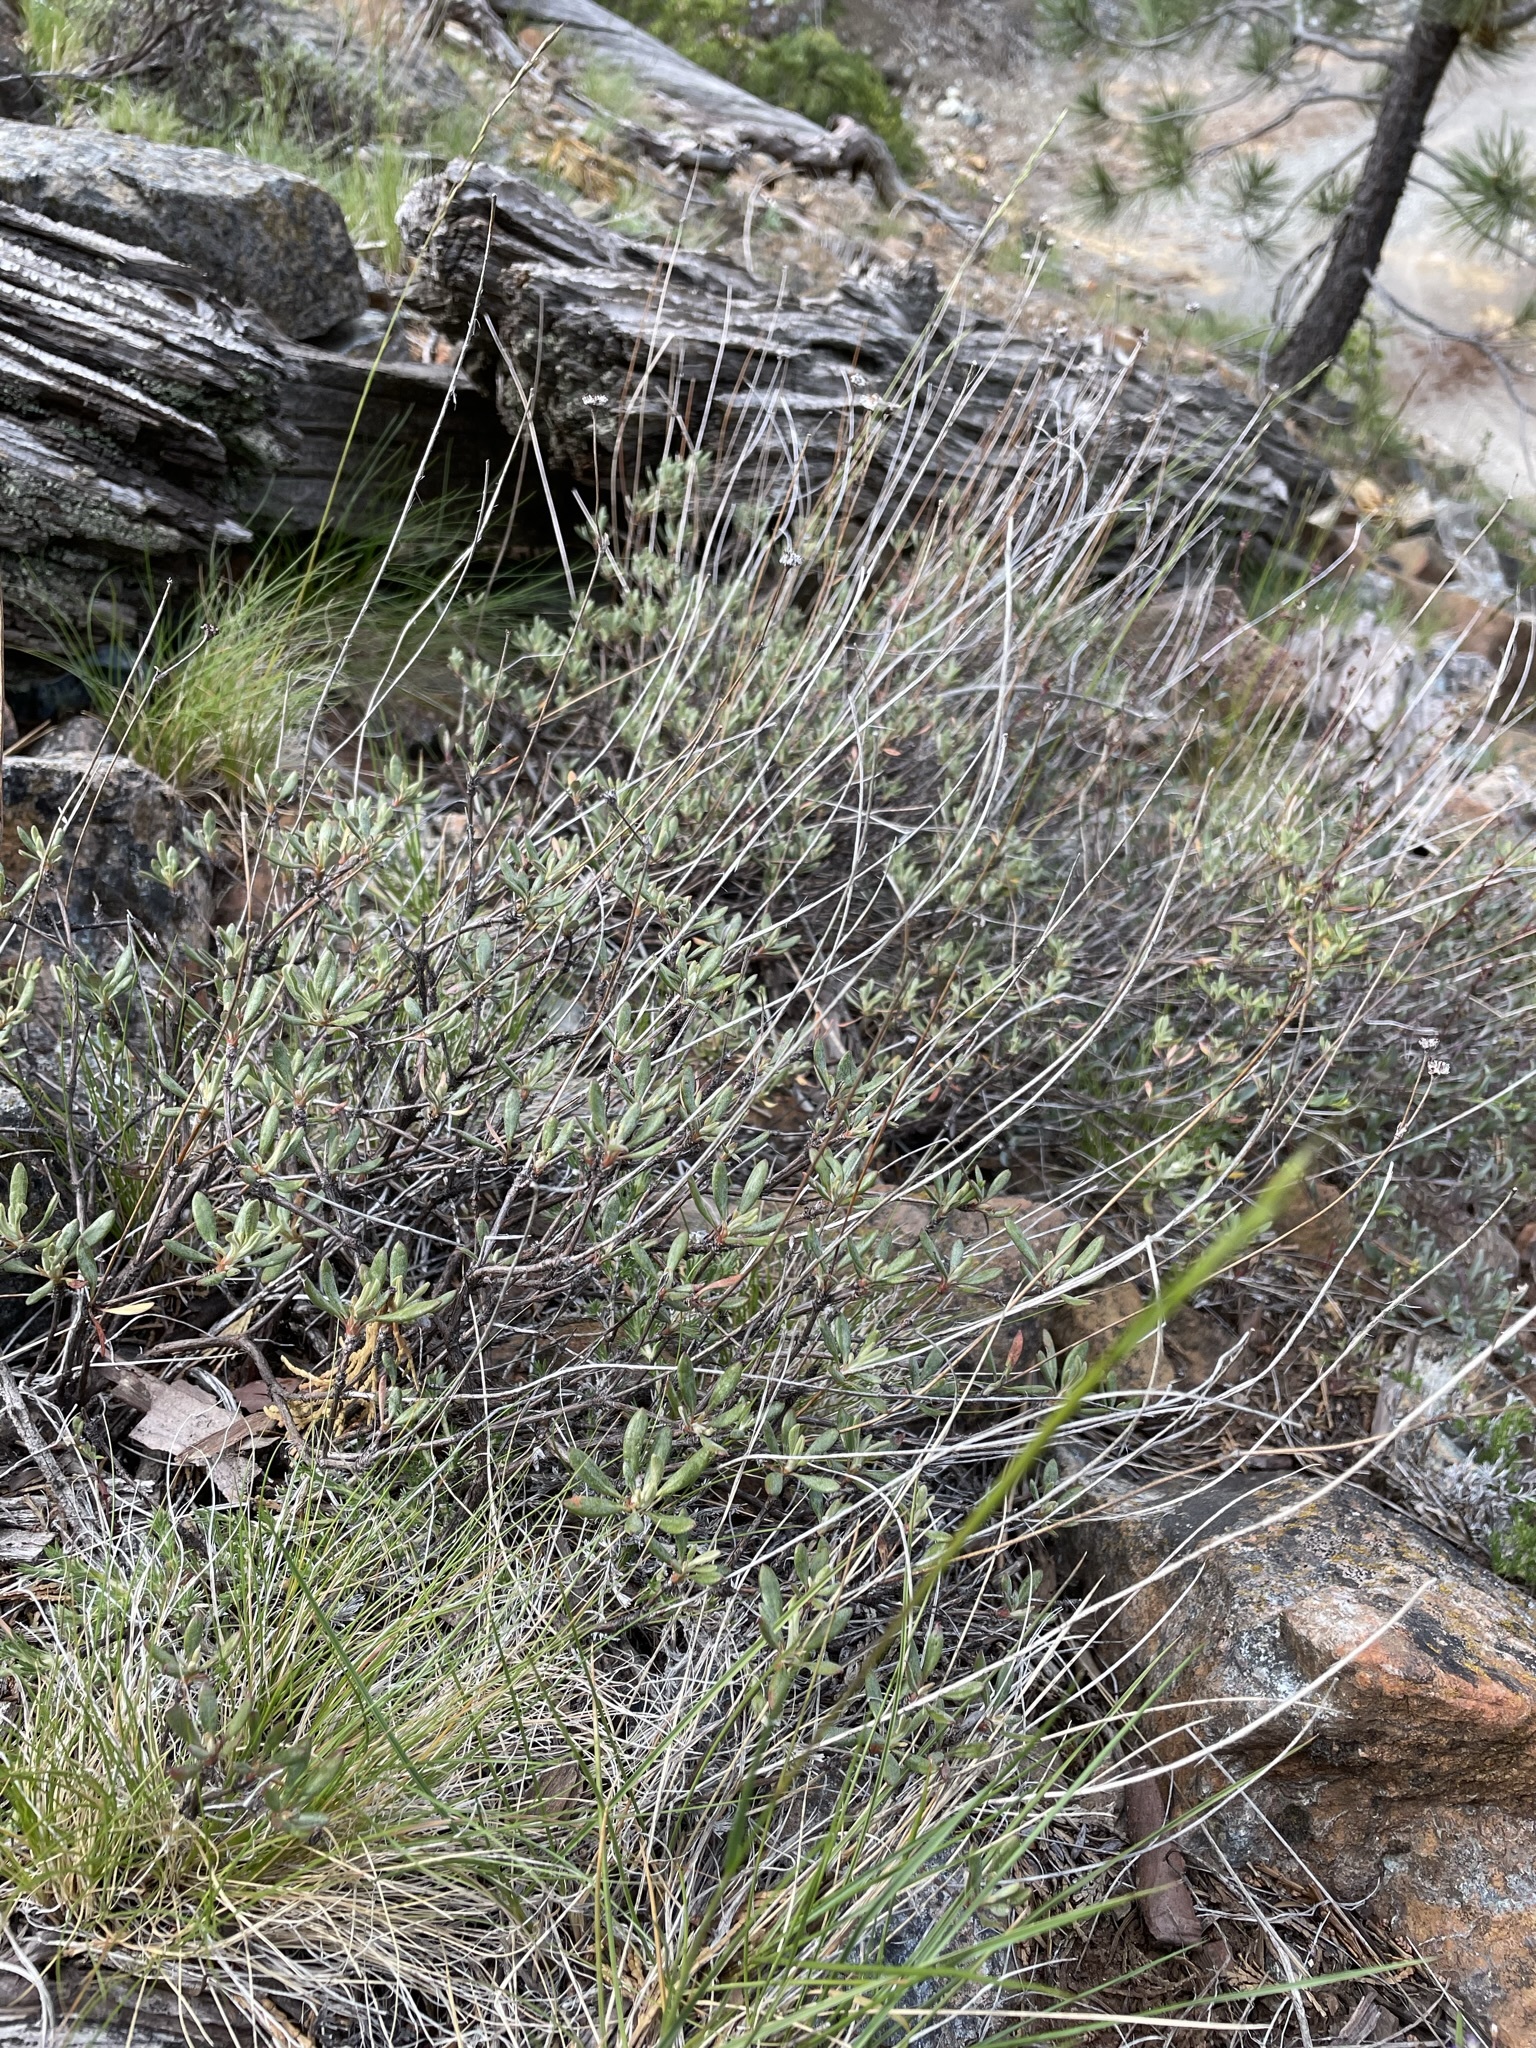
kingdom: Plantae
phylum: Tracheophyta
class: Magnoliopsida
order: Caryophyllales
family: Polygonaceae
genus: Eriogonum
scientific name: Eriogonum congdonii
